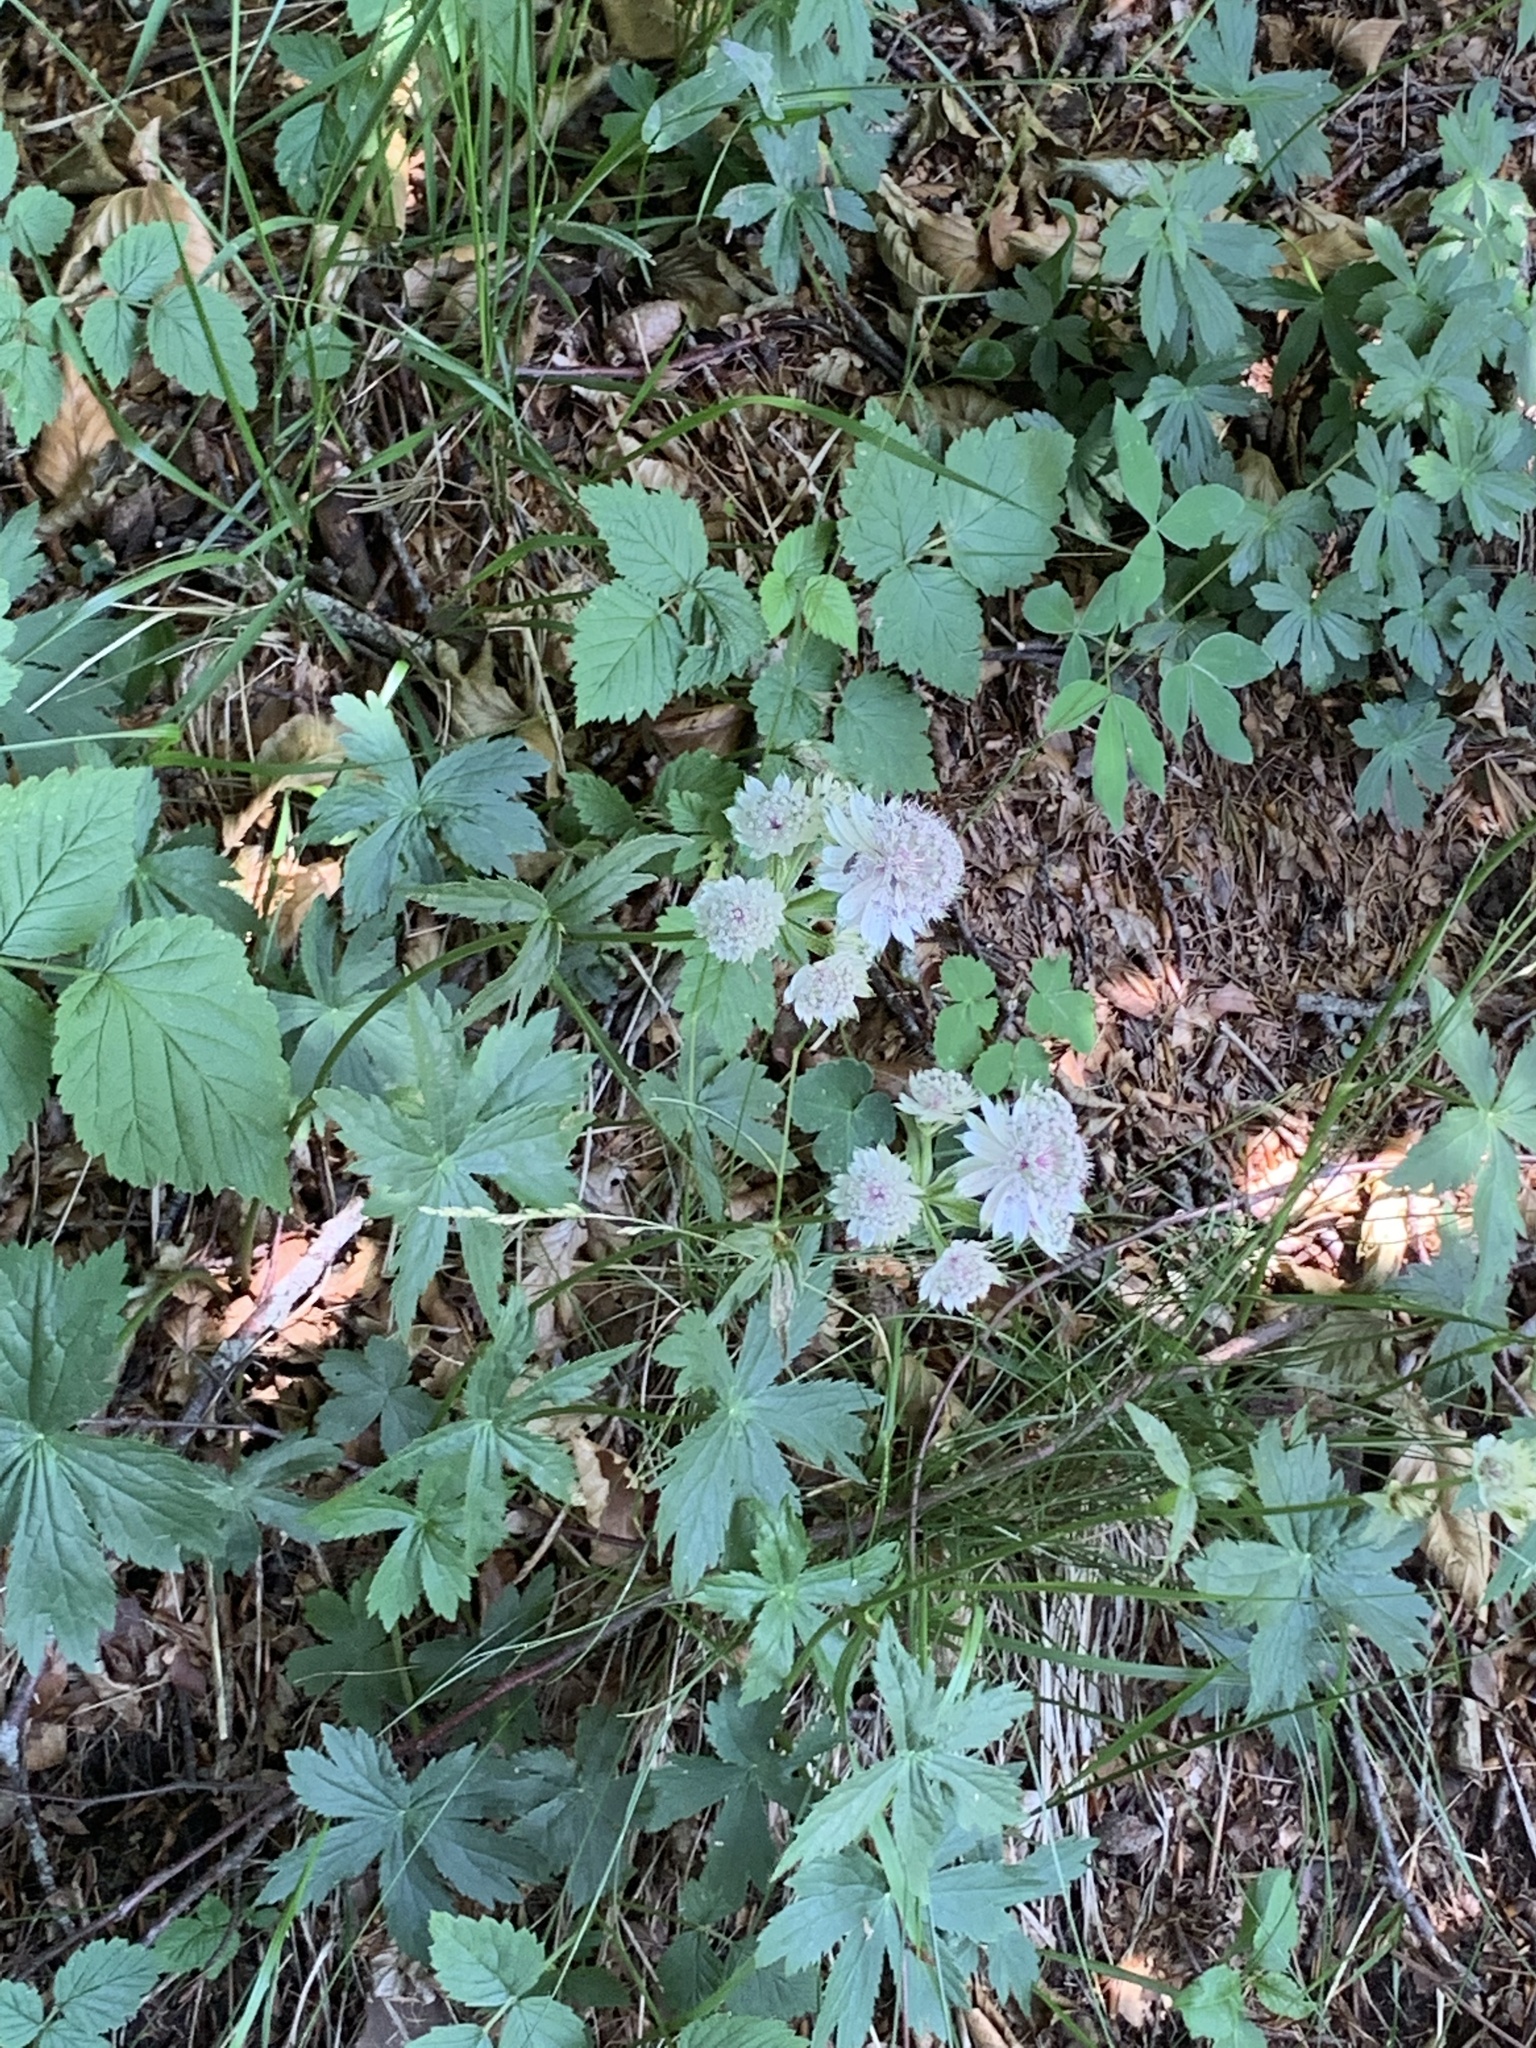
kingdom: Plantae
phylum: Tracheophyta
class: Magnoliopsida
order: Apiales
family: Apiaceae
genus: Astrantia
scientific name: Astrantia major
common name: Greater masterwort
